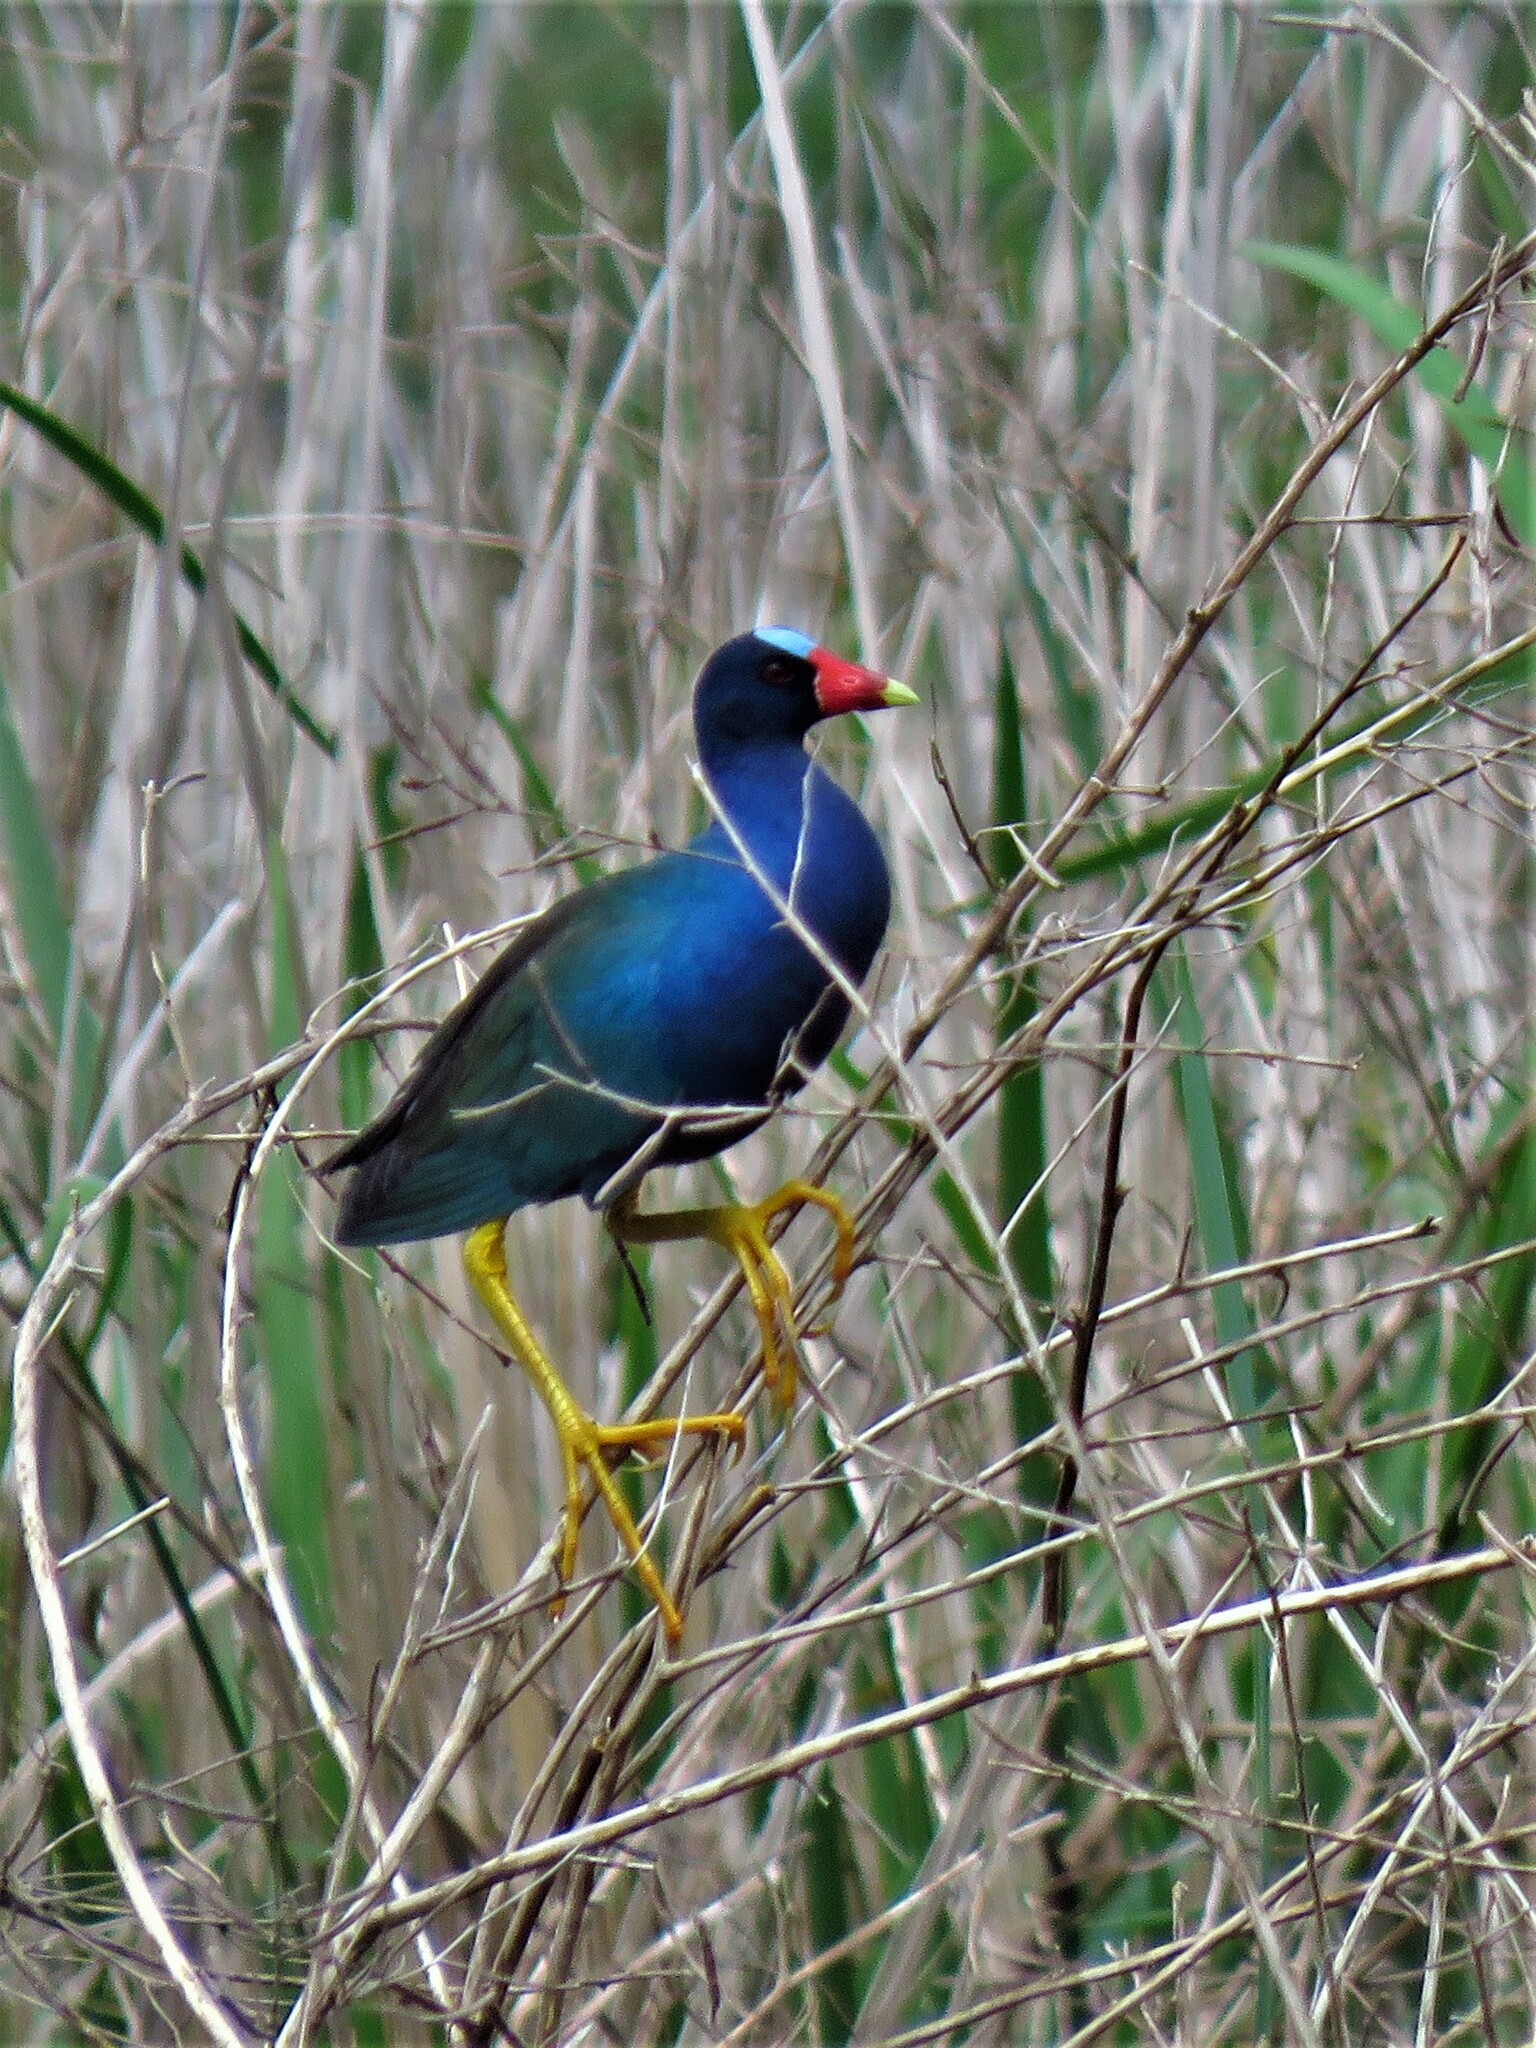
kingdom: Animalia
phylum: Chordata
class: Aves
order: Gruiformes
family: Rallidae
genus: Porphyrio
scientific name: Porphyrio martinica
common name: Purple gallinule
